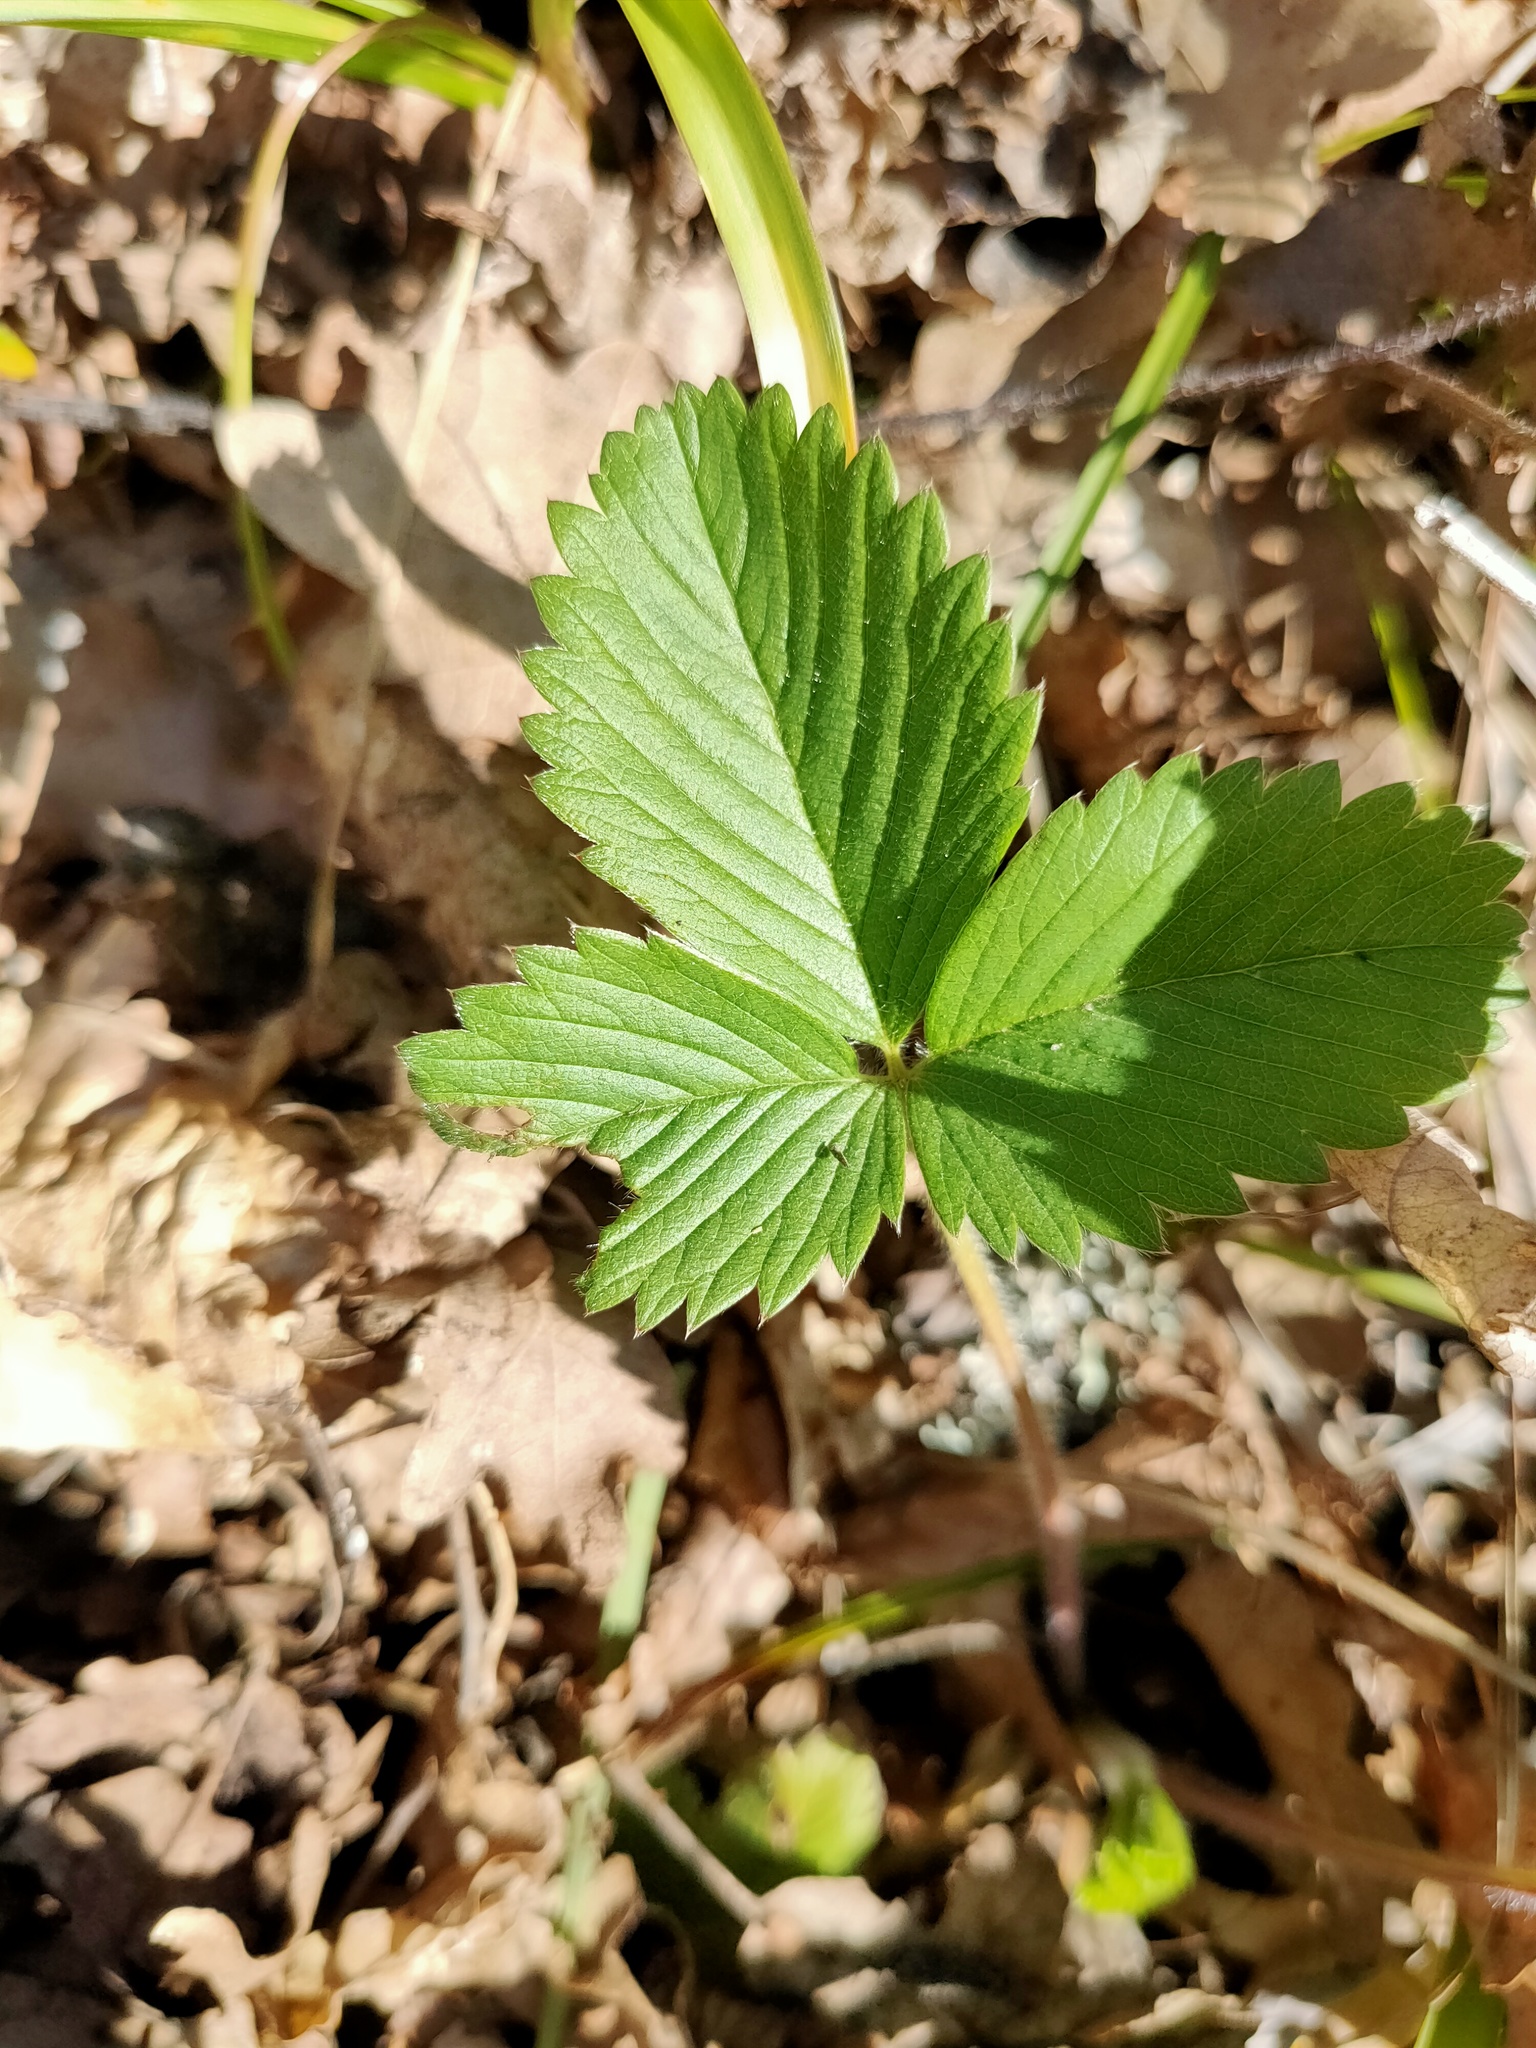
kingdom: Plantae
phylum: Tracheophyta
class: Magnoliopsida
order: Rosales
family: Rosaceae
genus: Fragaria
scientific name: Fragaria viridis
